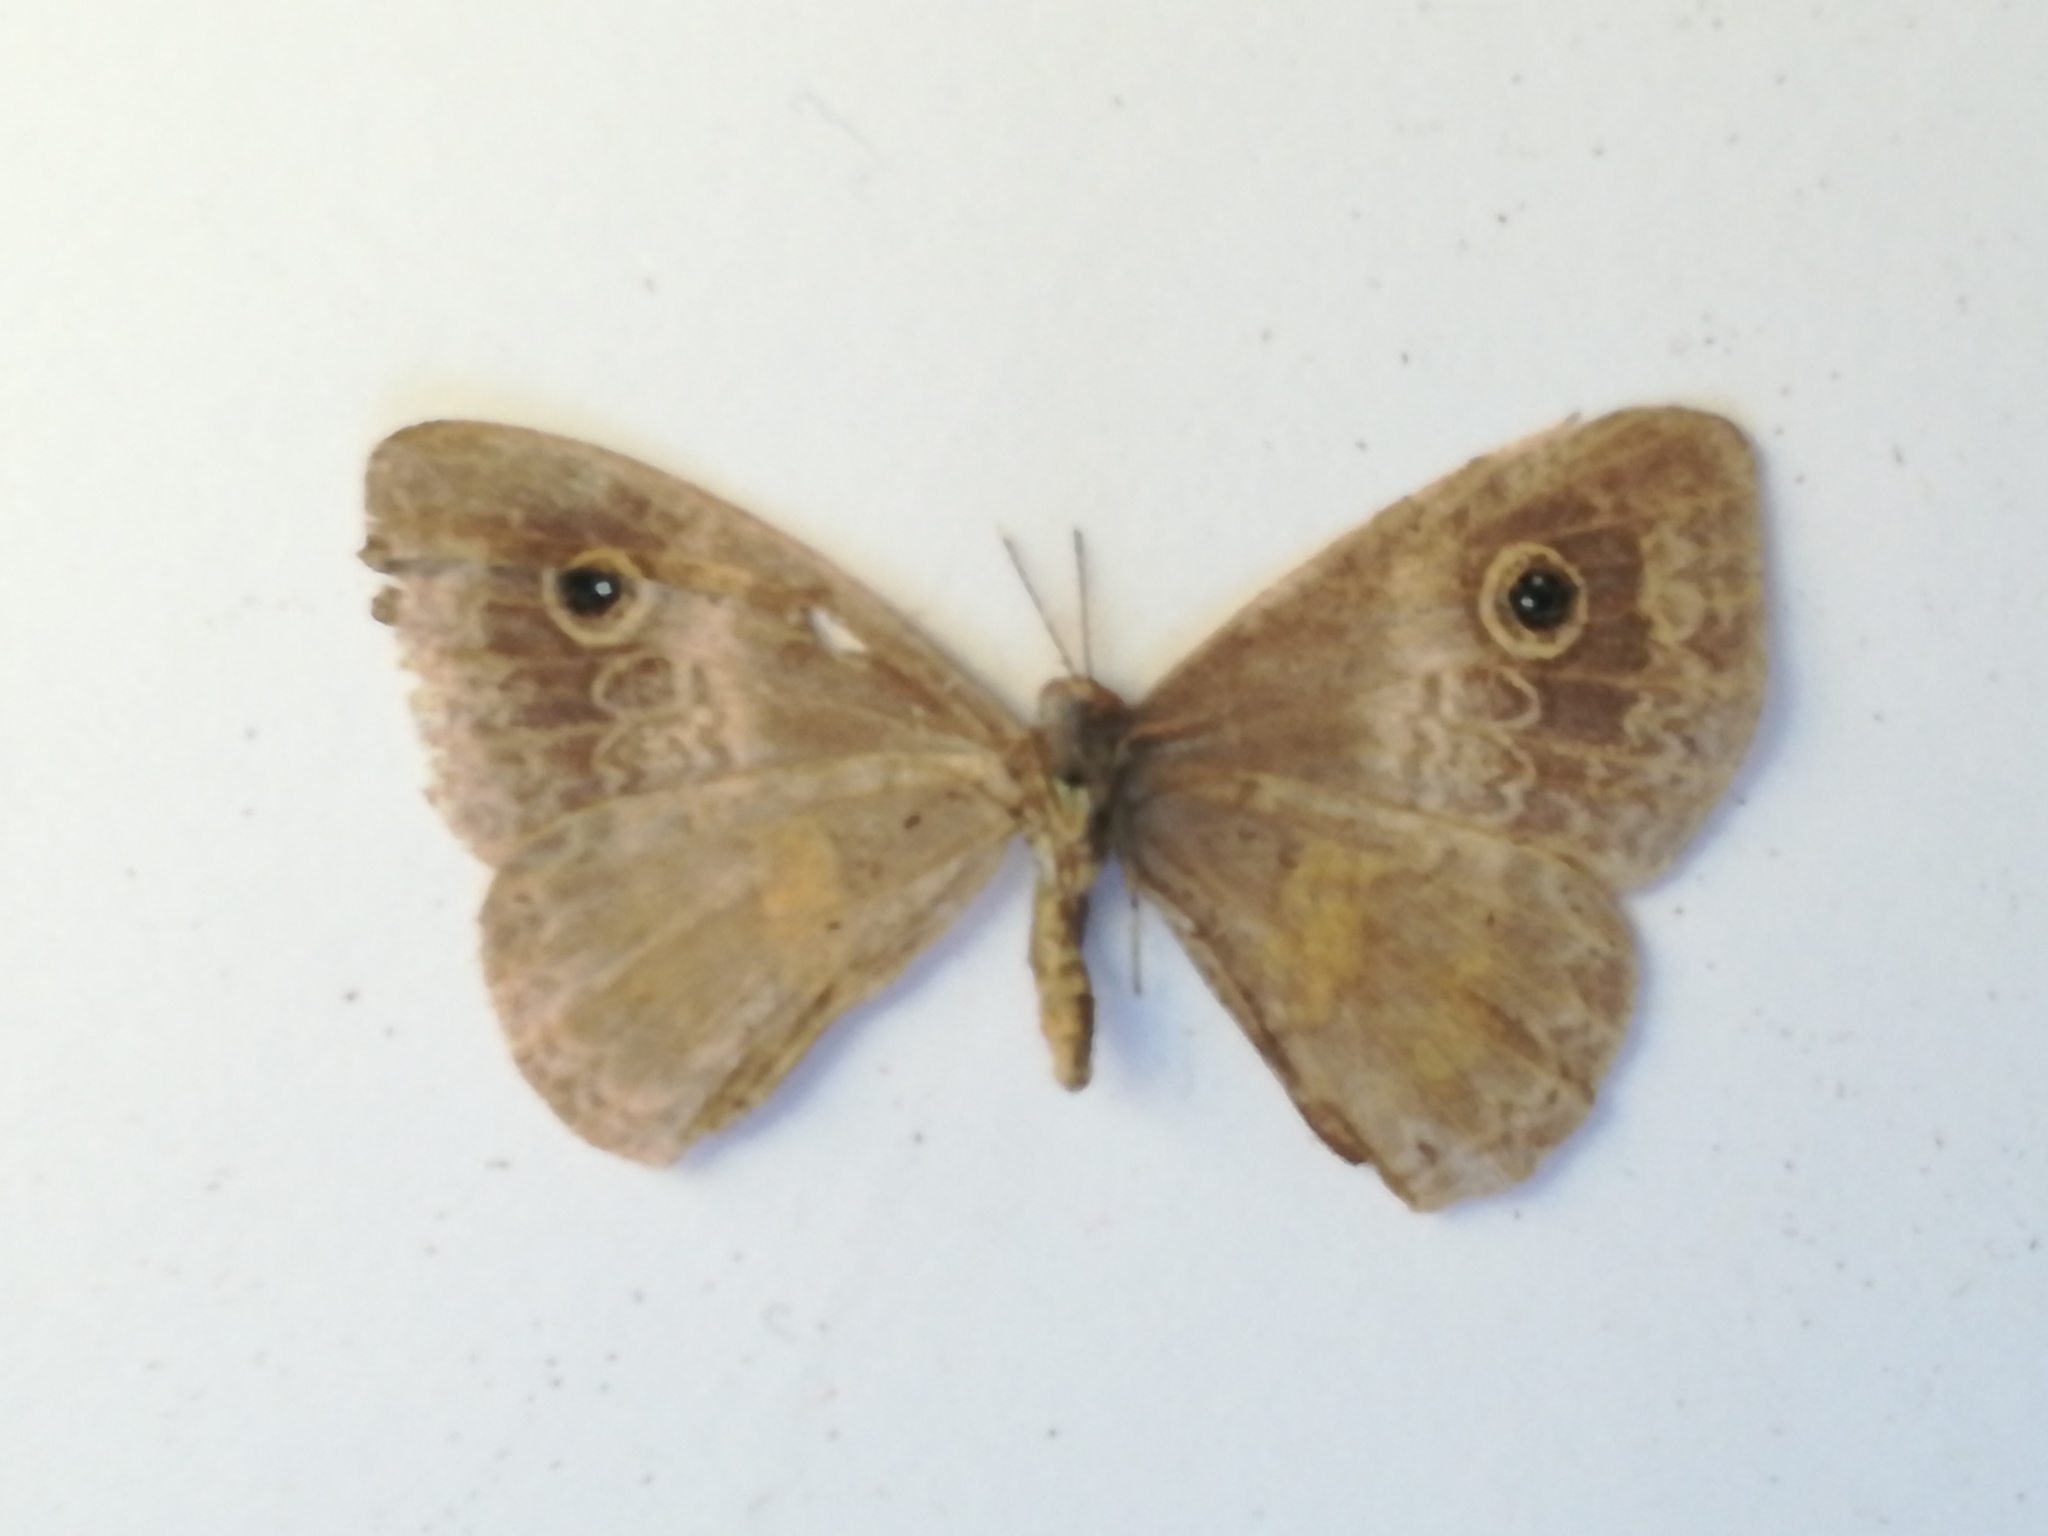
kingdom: Animalia
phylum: Arthropoda
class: Insecta
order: Lepidoptera
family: Riodinidae
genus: Perophthalma
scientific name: Perophthalma tullius
